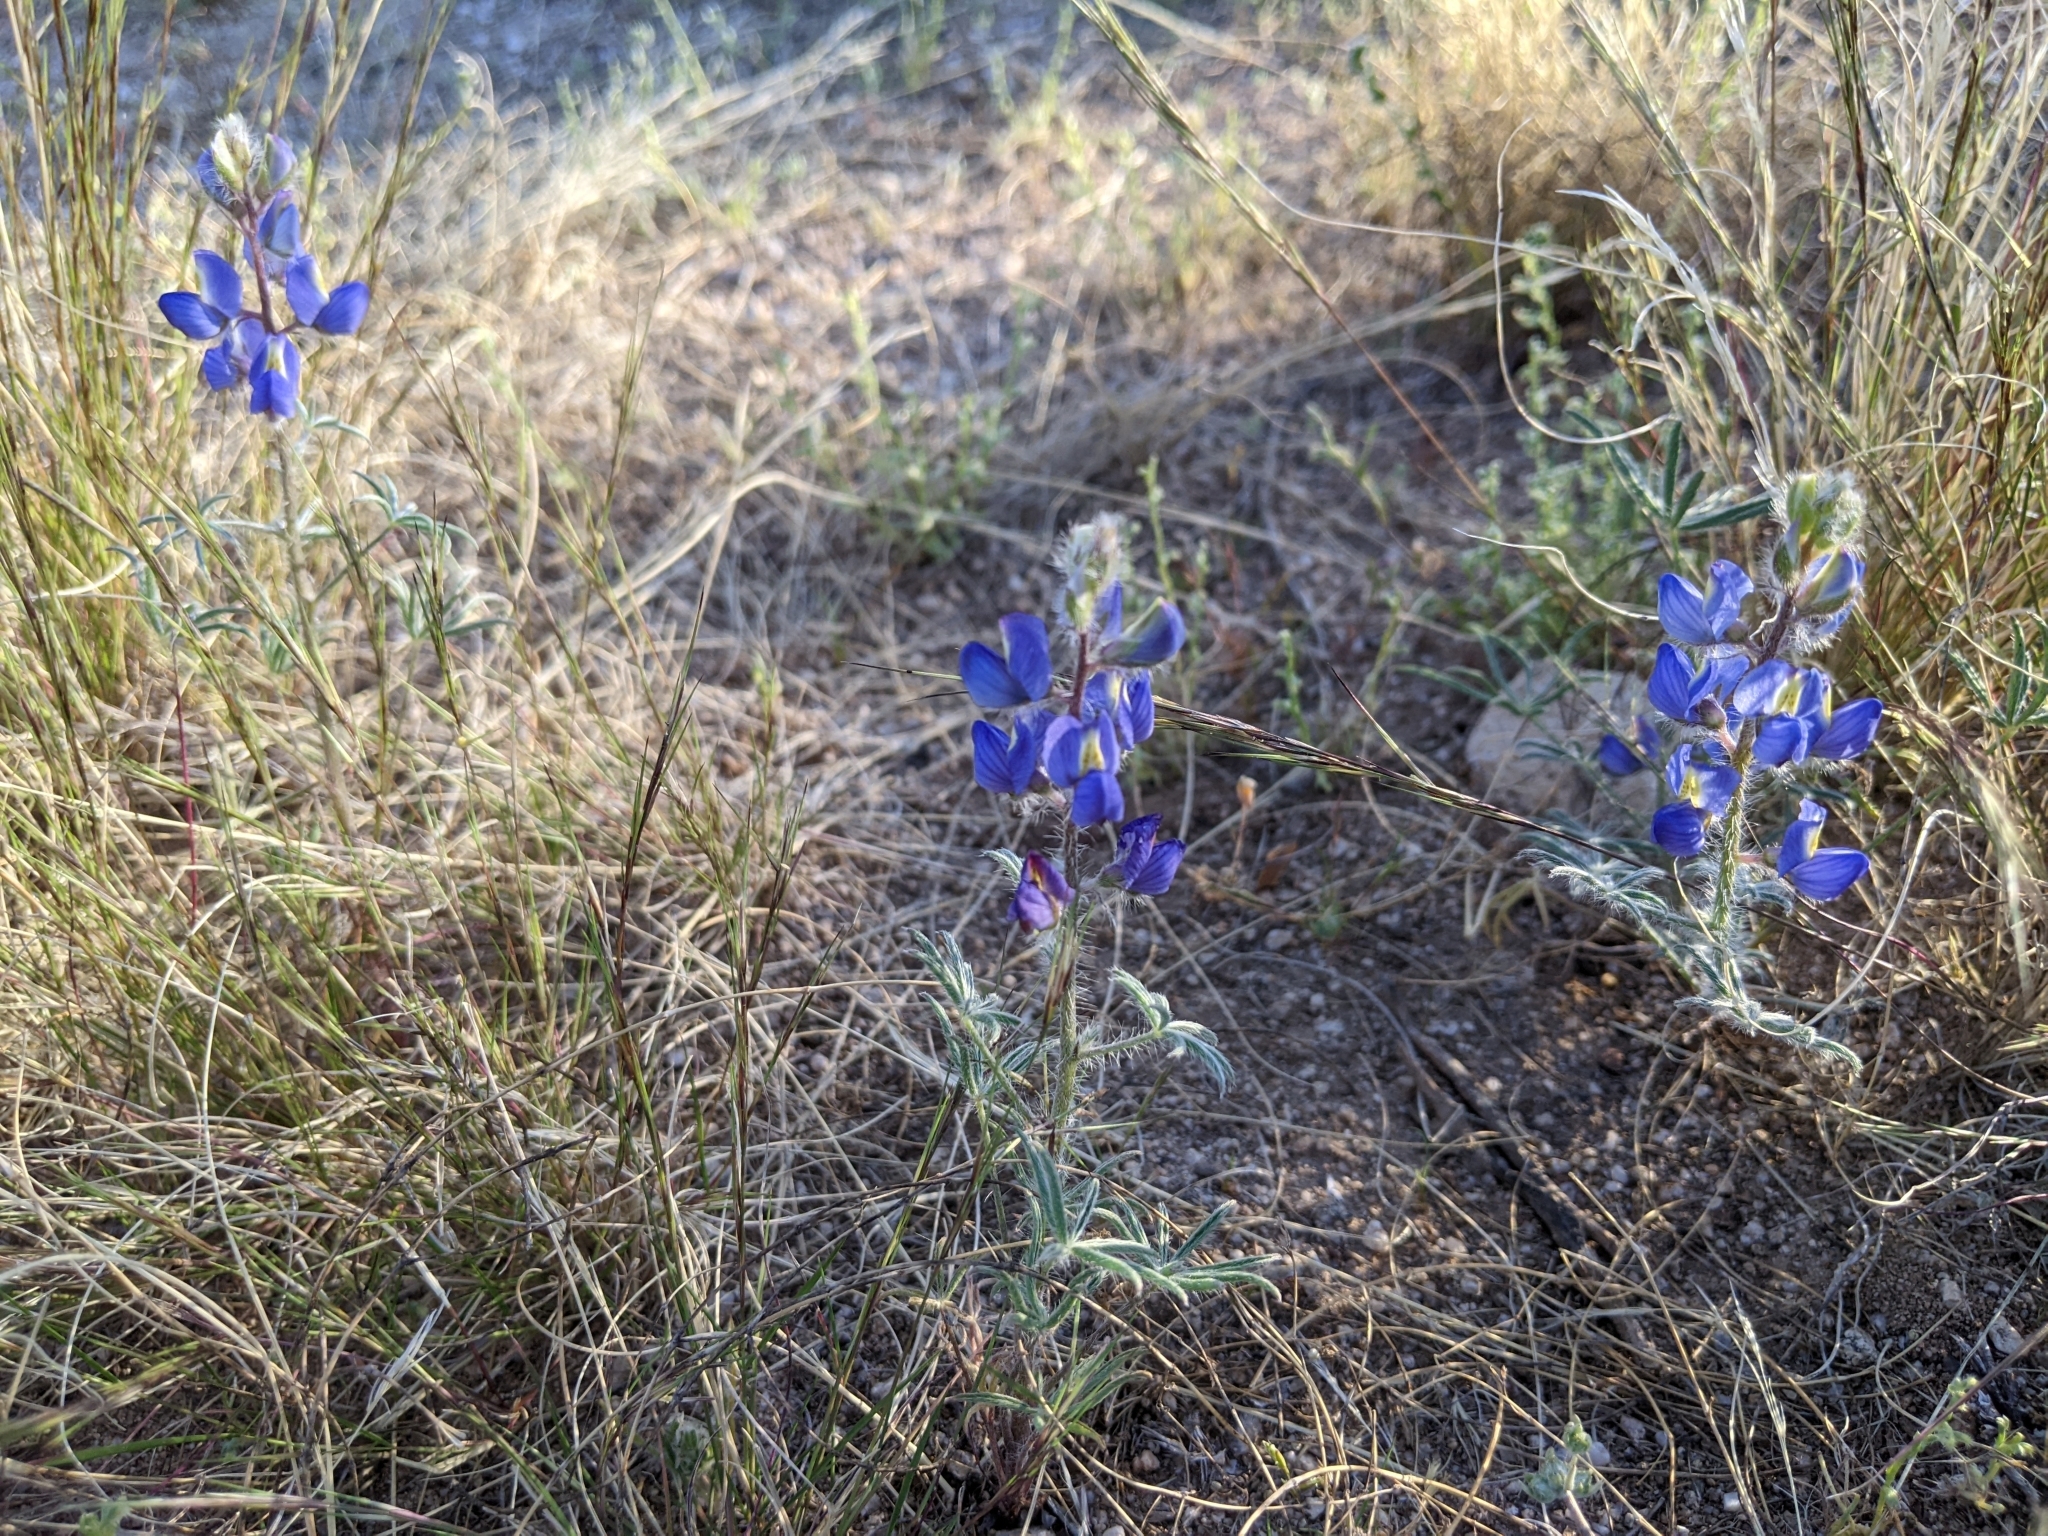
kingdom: Plantae
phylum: Tracheophyta
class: Magnoliopsida
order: Fabales
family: Fabaceae
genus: Lupinus
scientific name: Lupinus sparsiflorus
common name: Coulter's lupine
